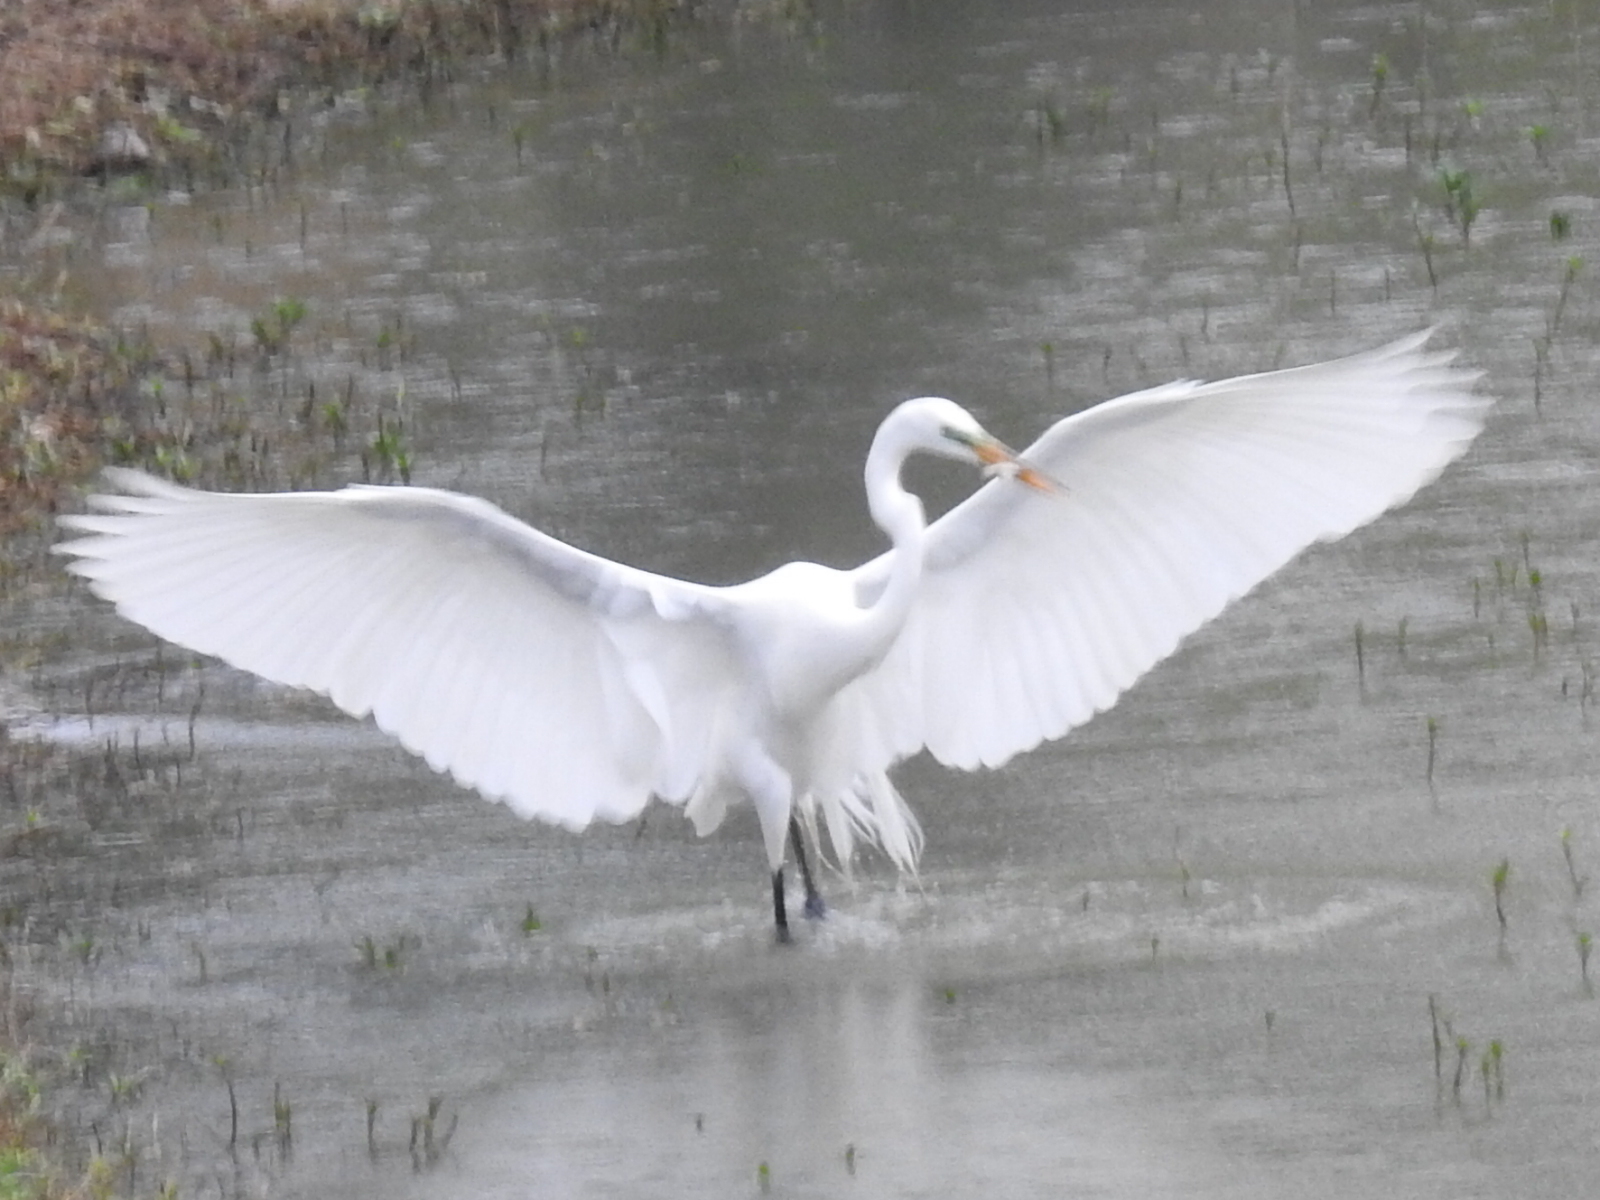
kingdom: Animalia
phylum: Chordata
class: Aves
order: Pelecaniformes
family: Ardeidae
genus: Ardea
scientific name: Ardea alba
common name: Great egret
